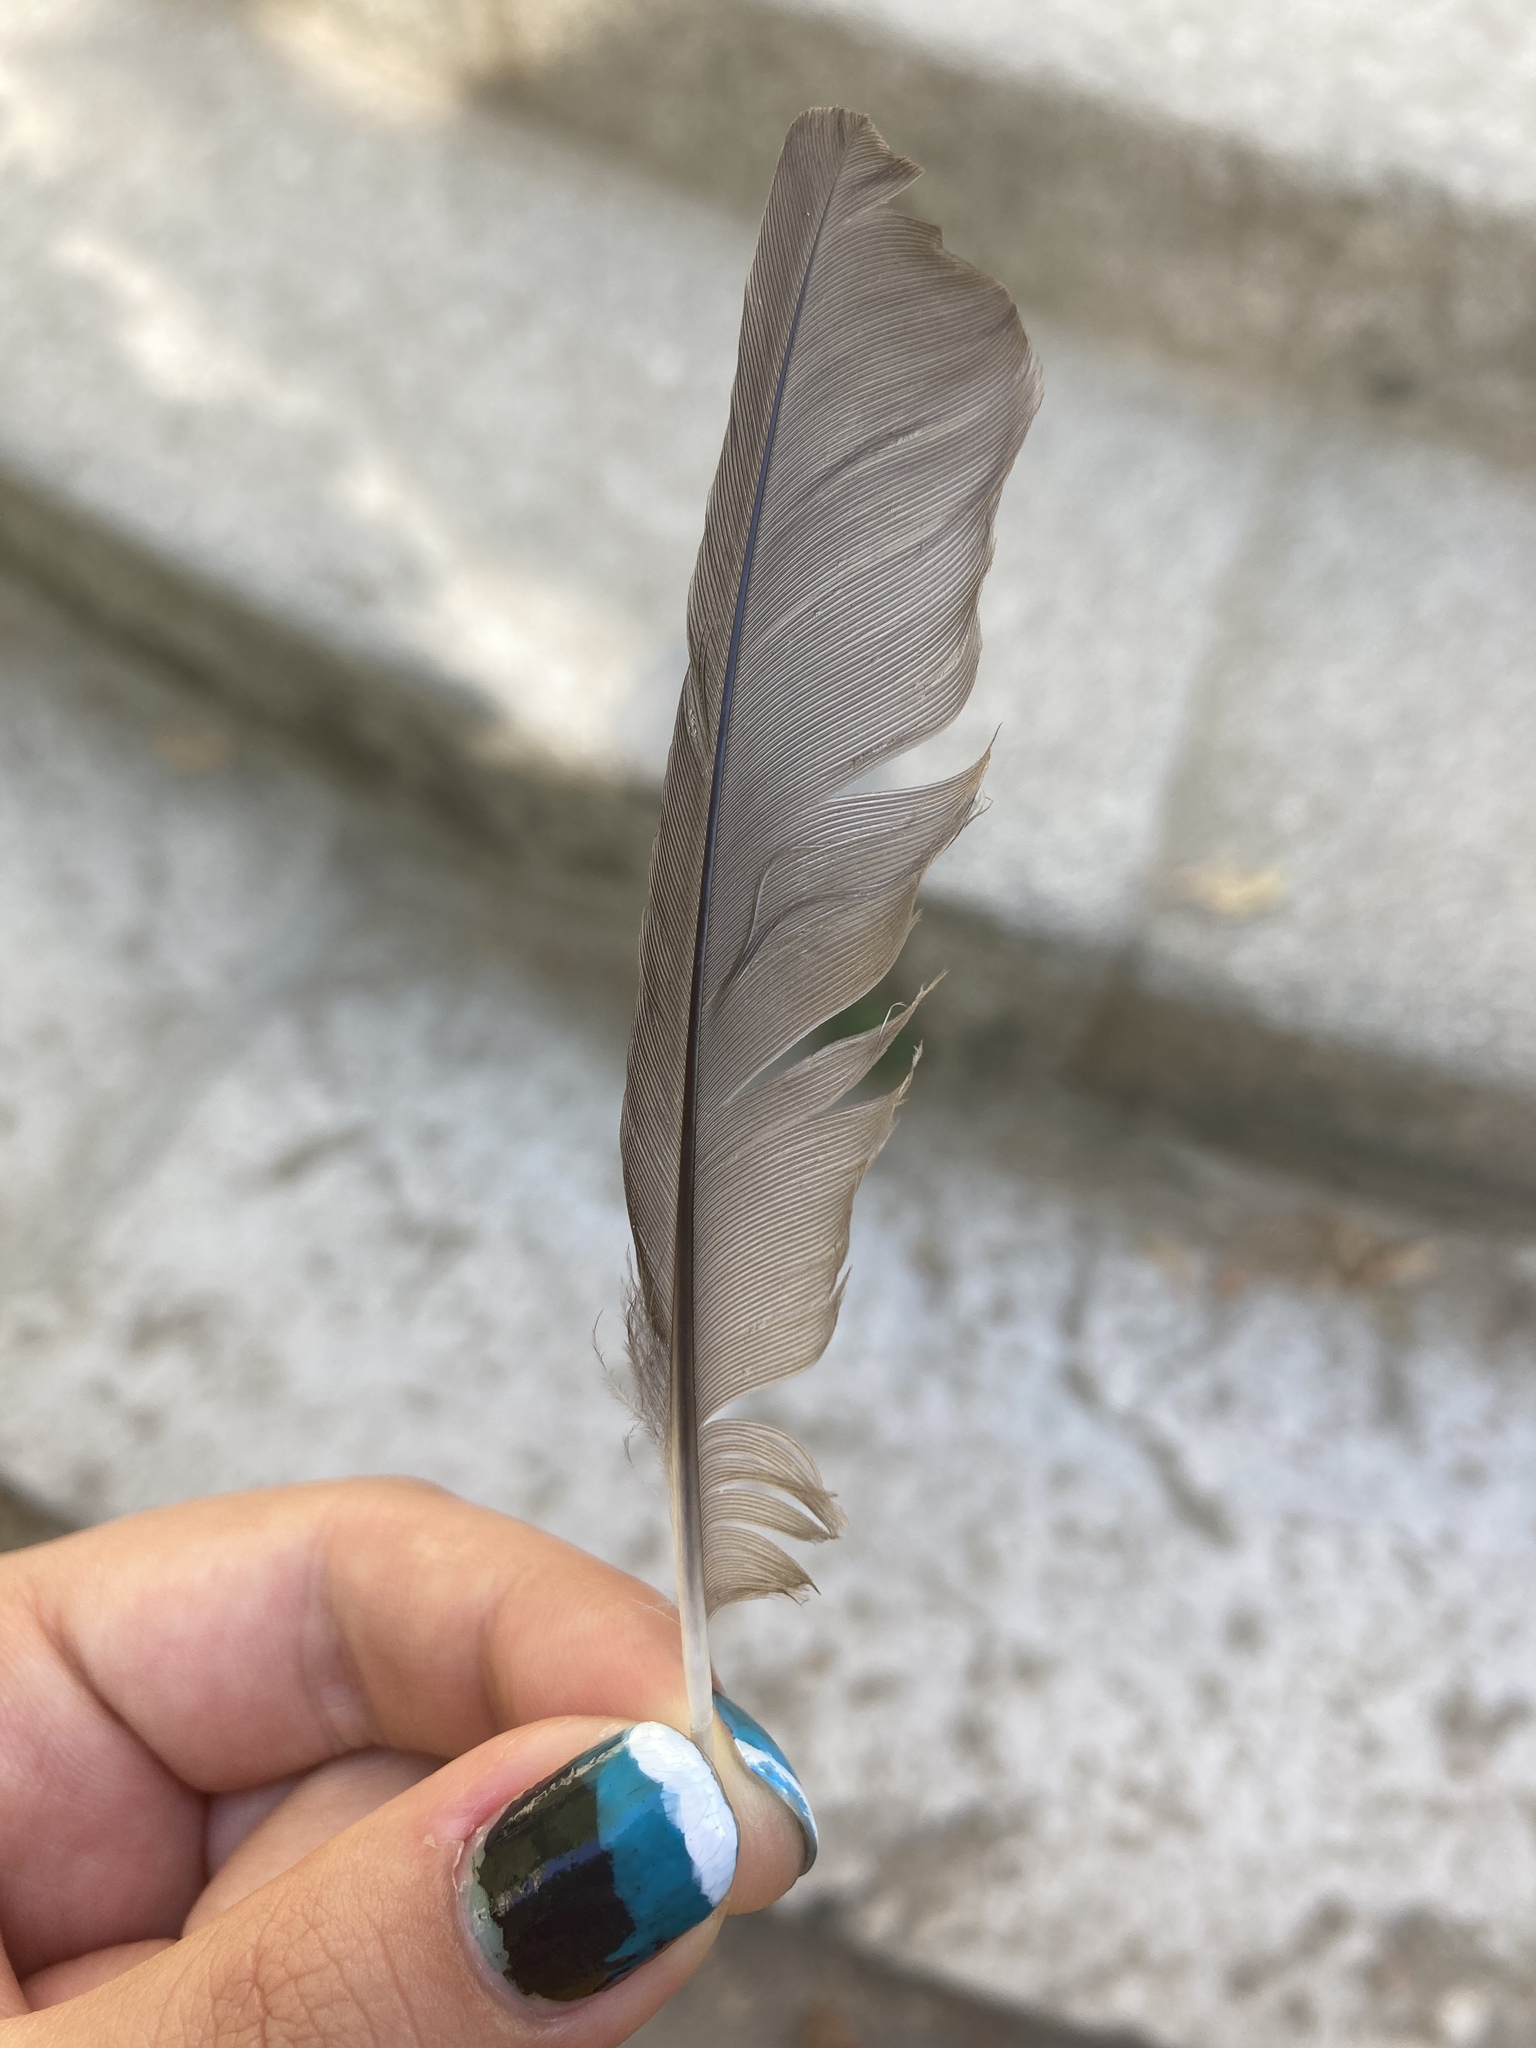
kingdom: Animalia
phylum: Chordata
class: Aves
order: Passeriformes
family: Turdidae
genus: Turdus
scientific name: Turdus merula
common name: Common blackbird
